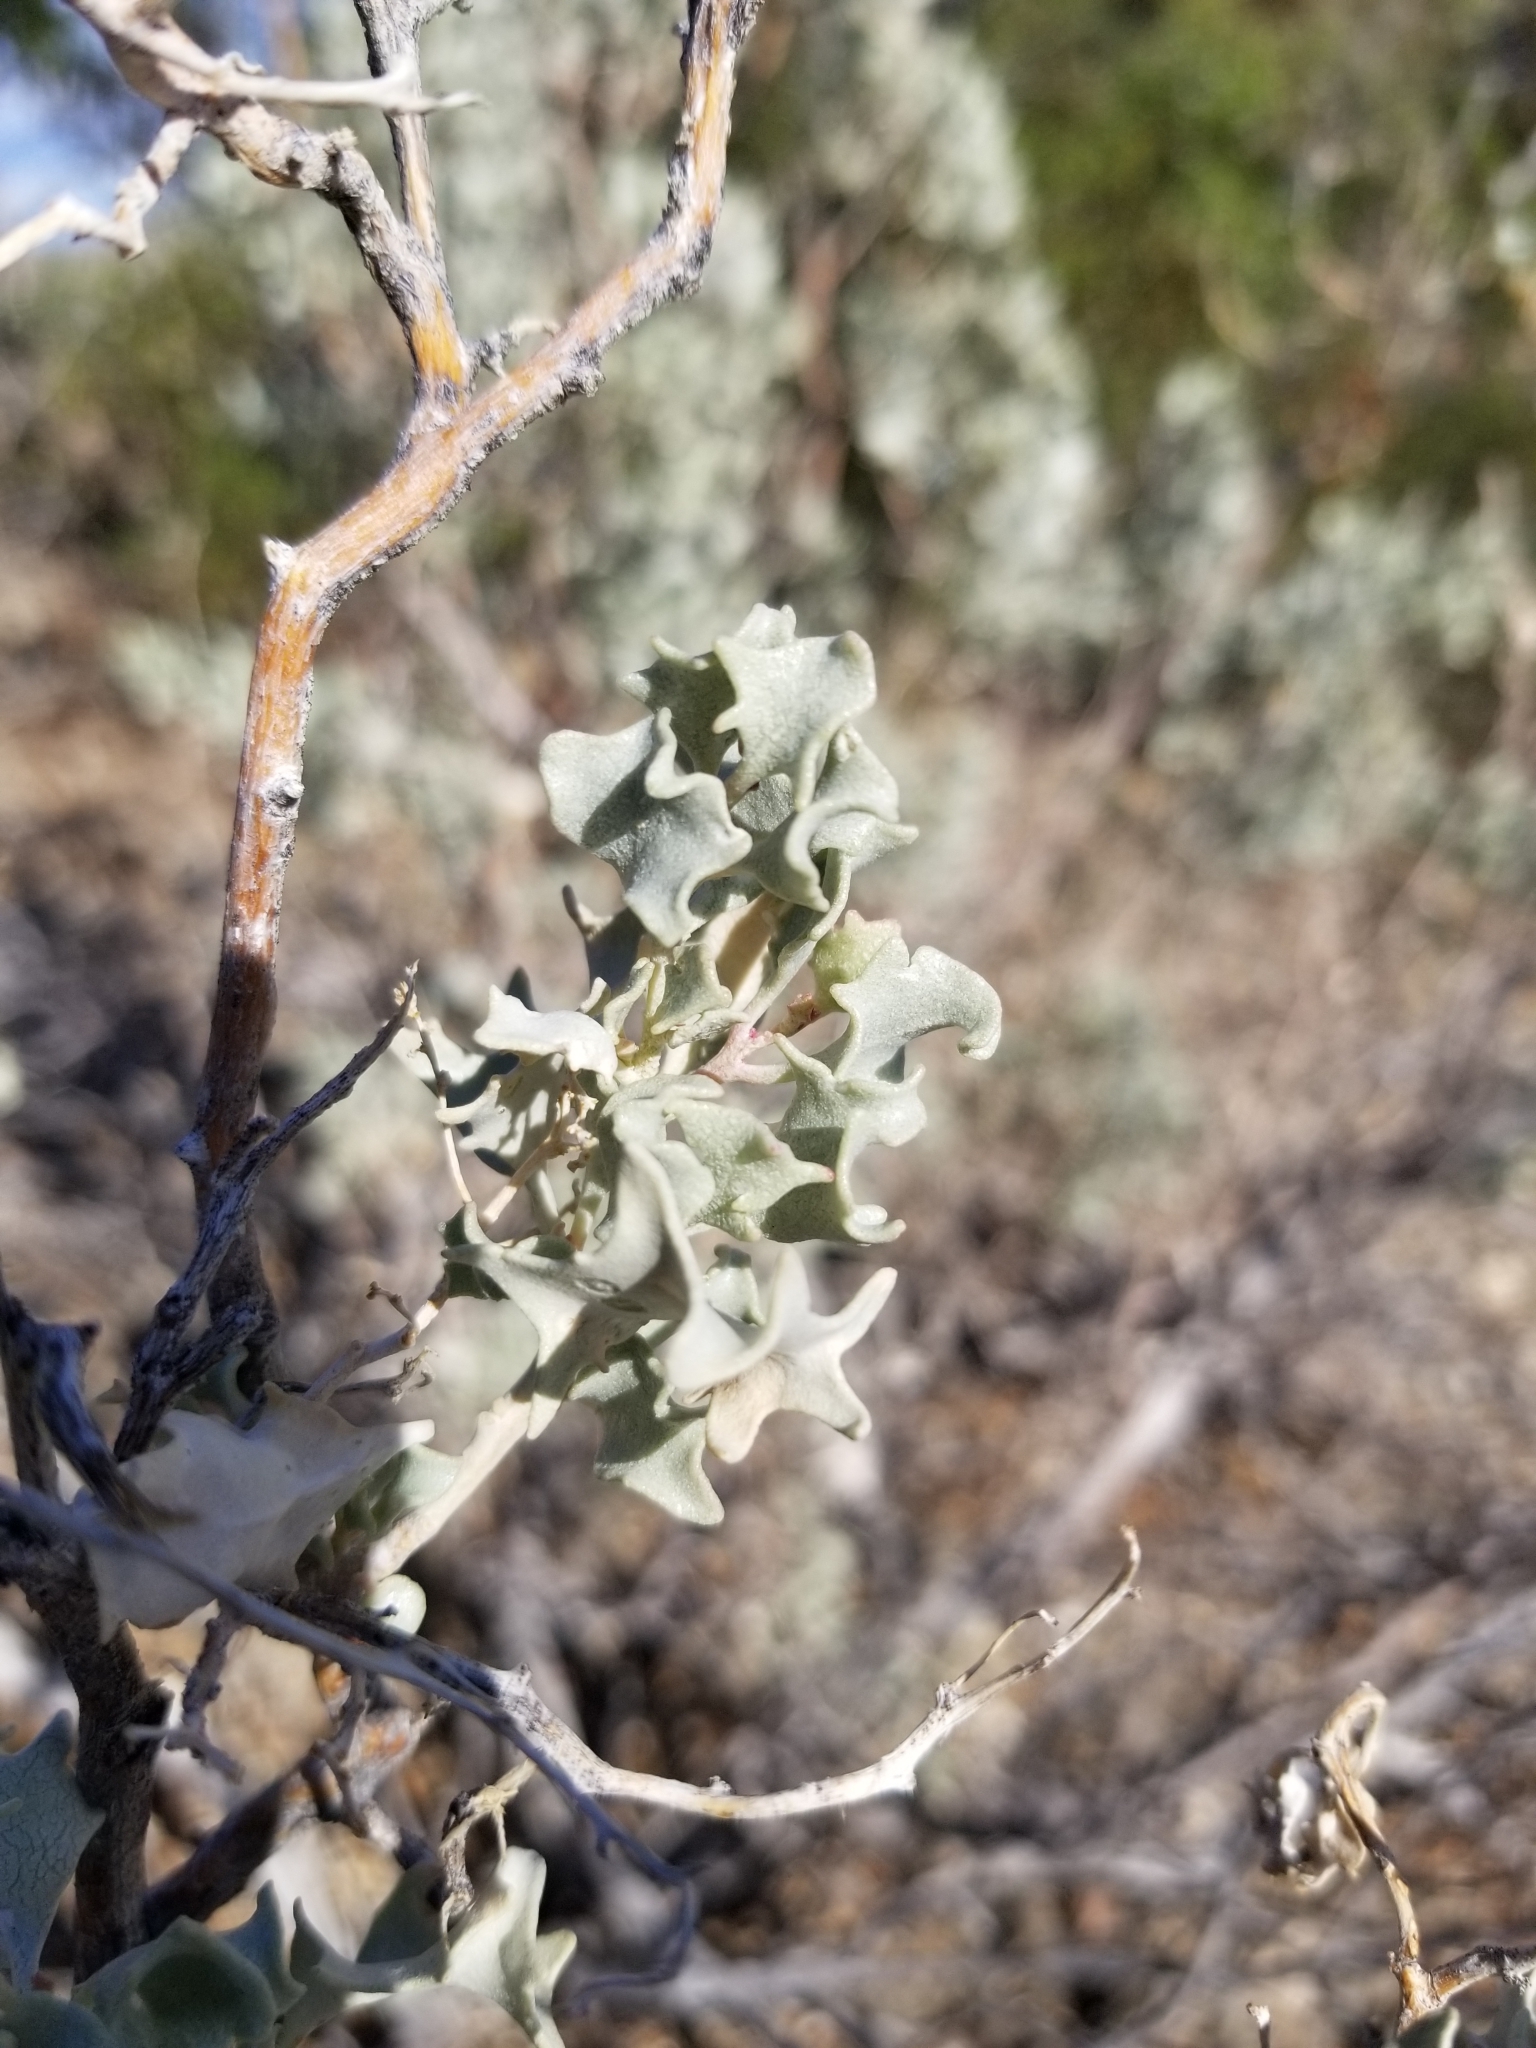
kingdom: Plantae
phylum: Tracheophyta
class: Magnoliopsida
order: Caryophyllales
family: Amaranthaceae
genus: Atriplex
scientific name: Atriplex hymenelytra
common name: Desert-holly
